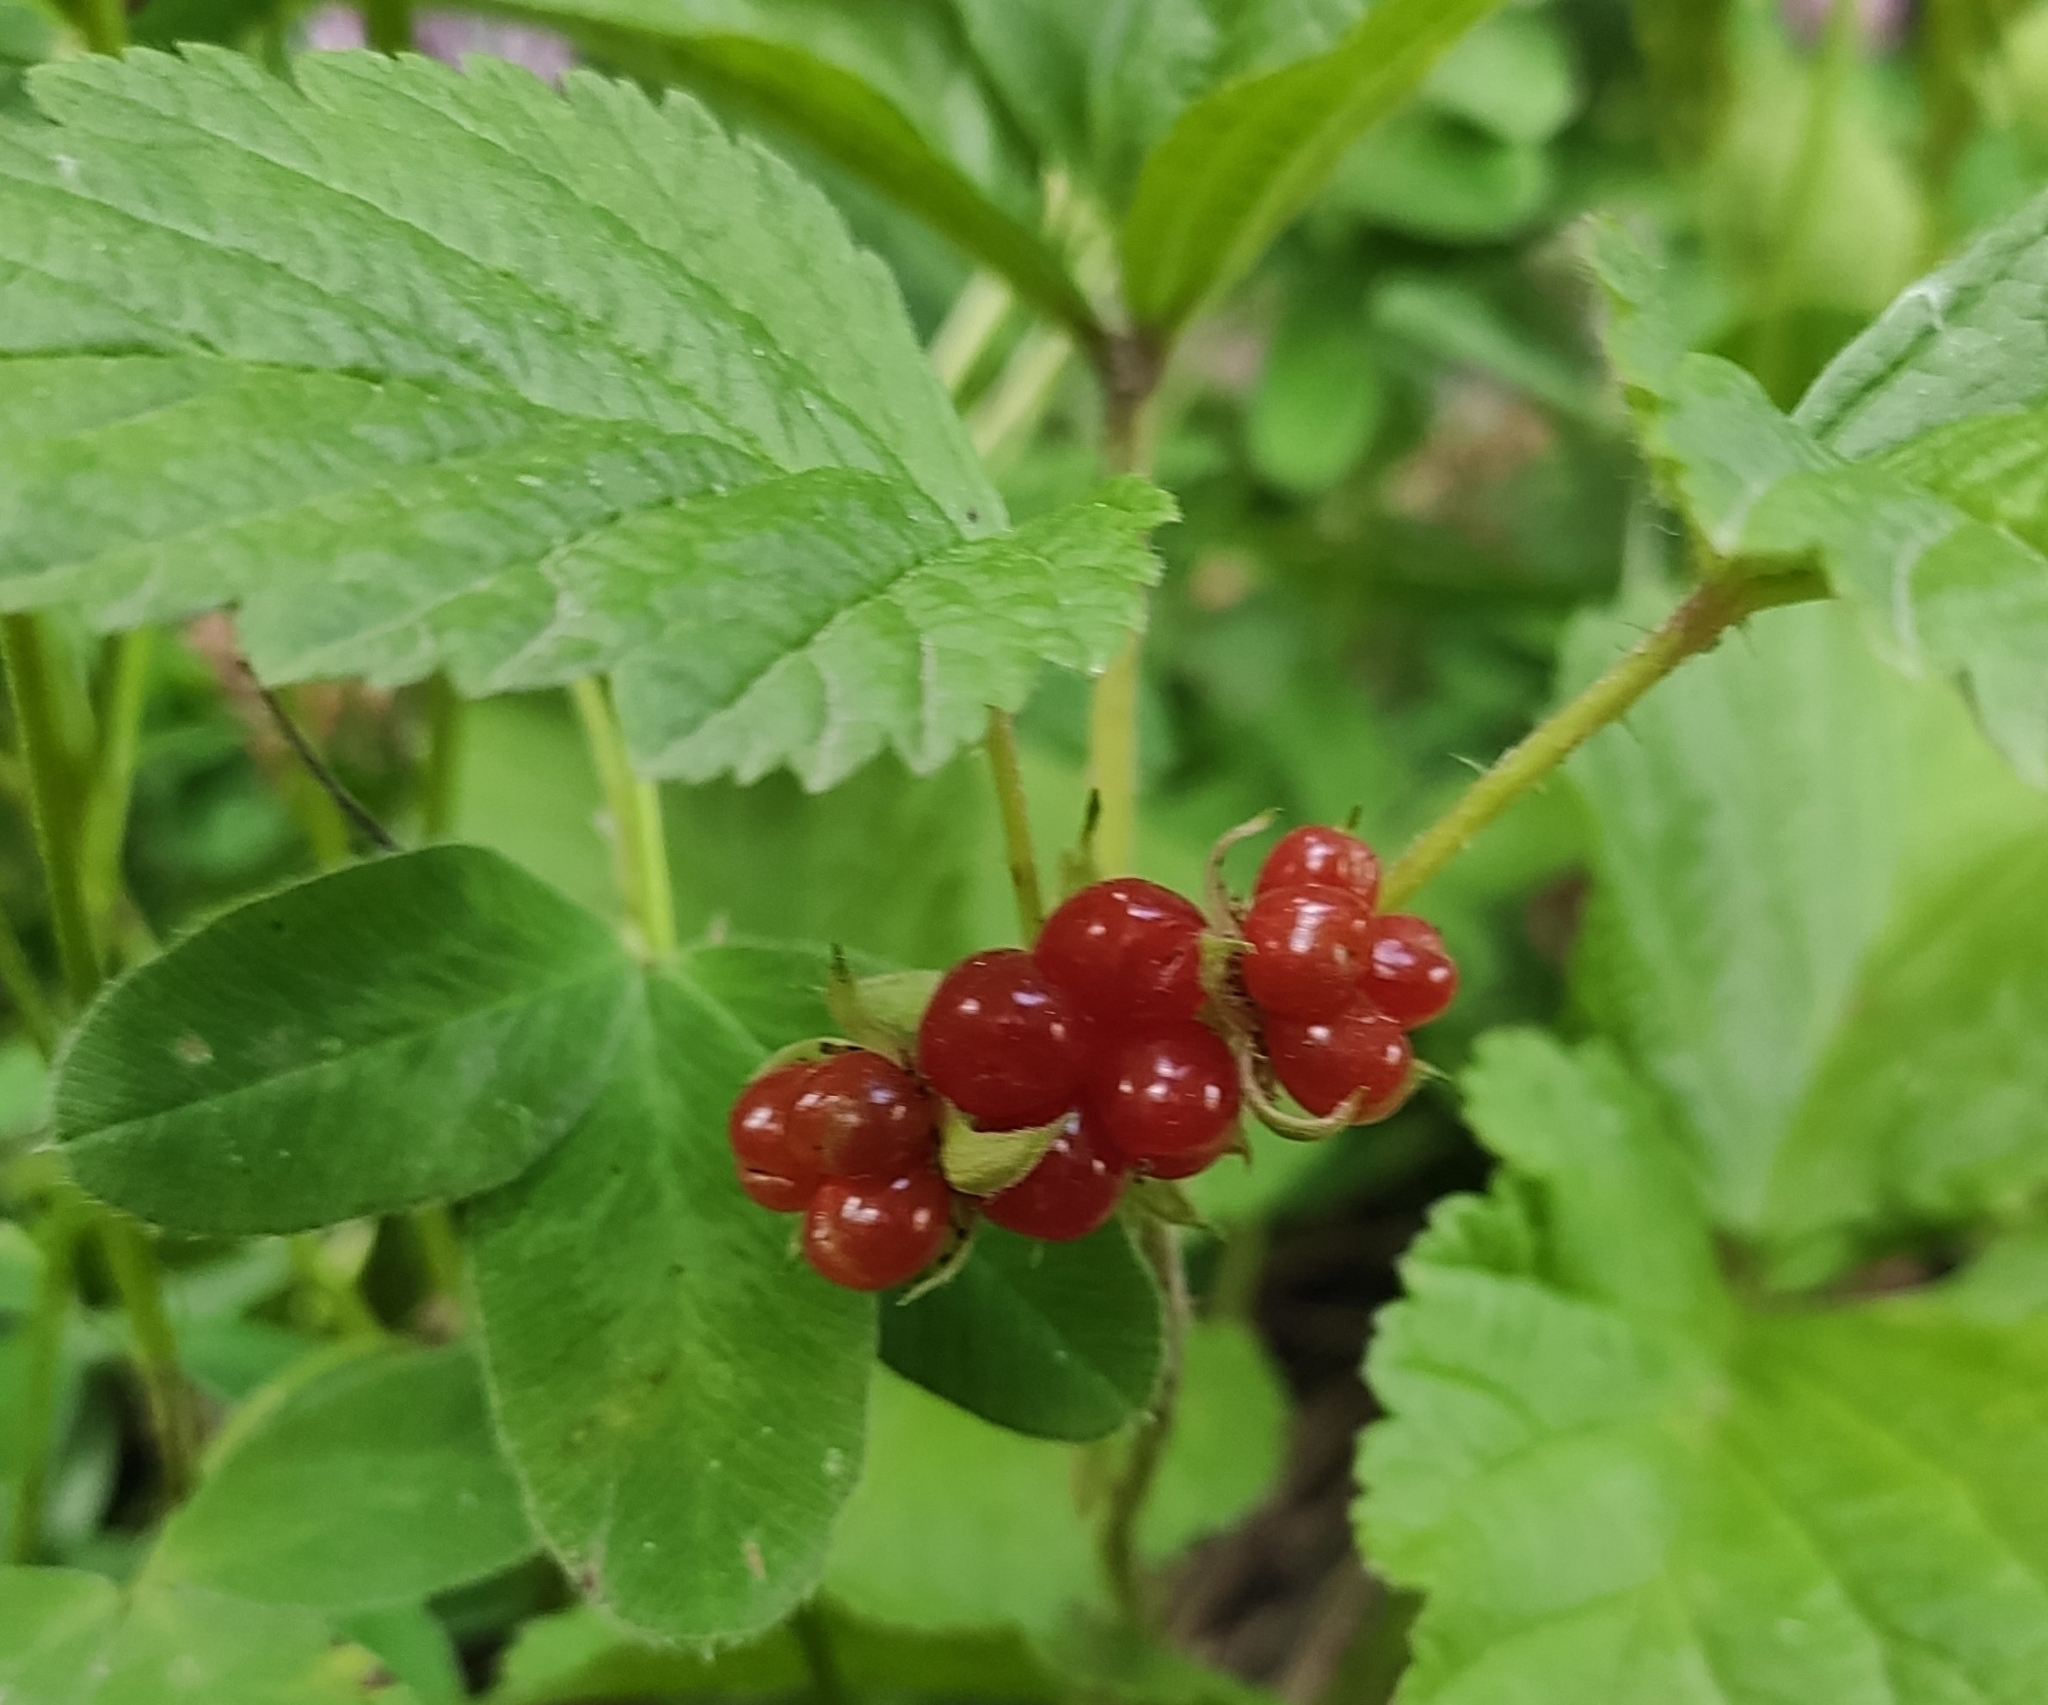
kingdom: Plantae
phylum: Tracheophyta
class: Magnoliopsida
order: Rosales
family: Rosaceae
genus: Rubus
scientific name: Rubus saxatilis
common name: Stone bramble
